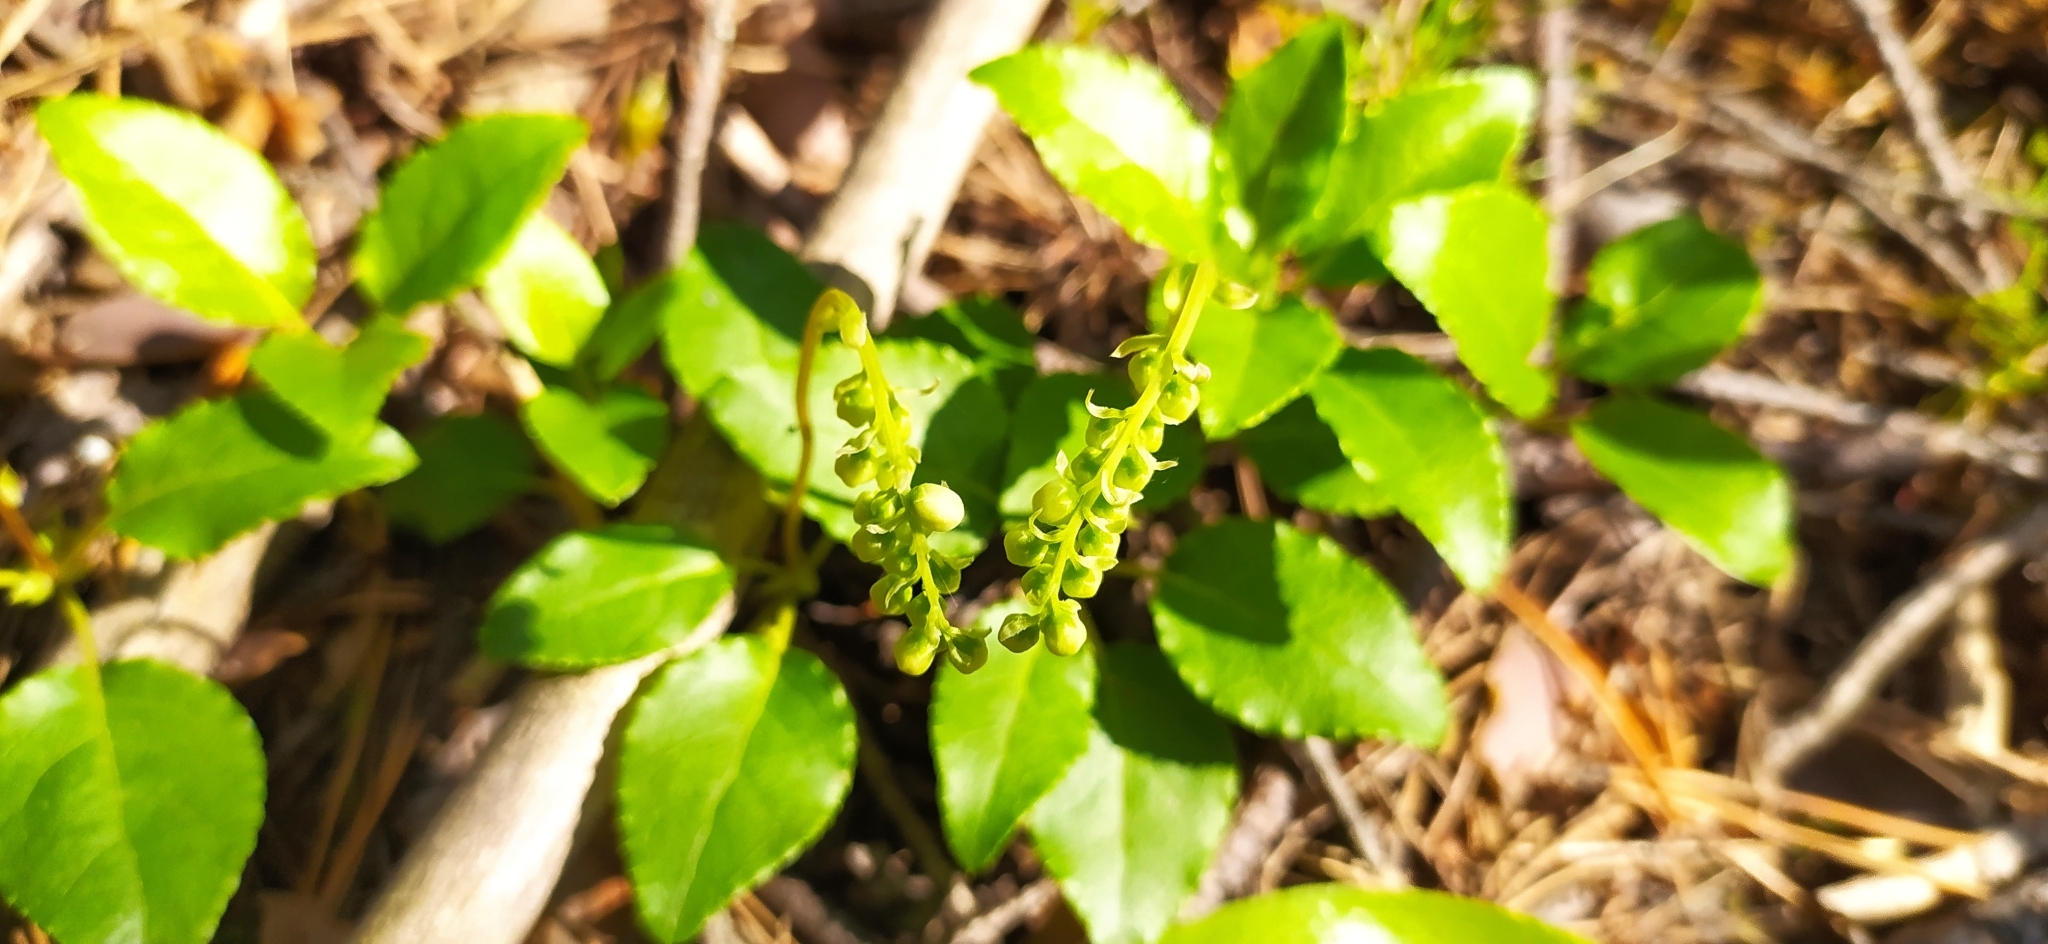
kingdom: Plantae
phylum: Tracheophyta
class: Magnoliopsida
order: Ericales
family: Ericaceae
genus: Orthilia
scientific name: Orthilia secunda
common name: One-sided orthilia
